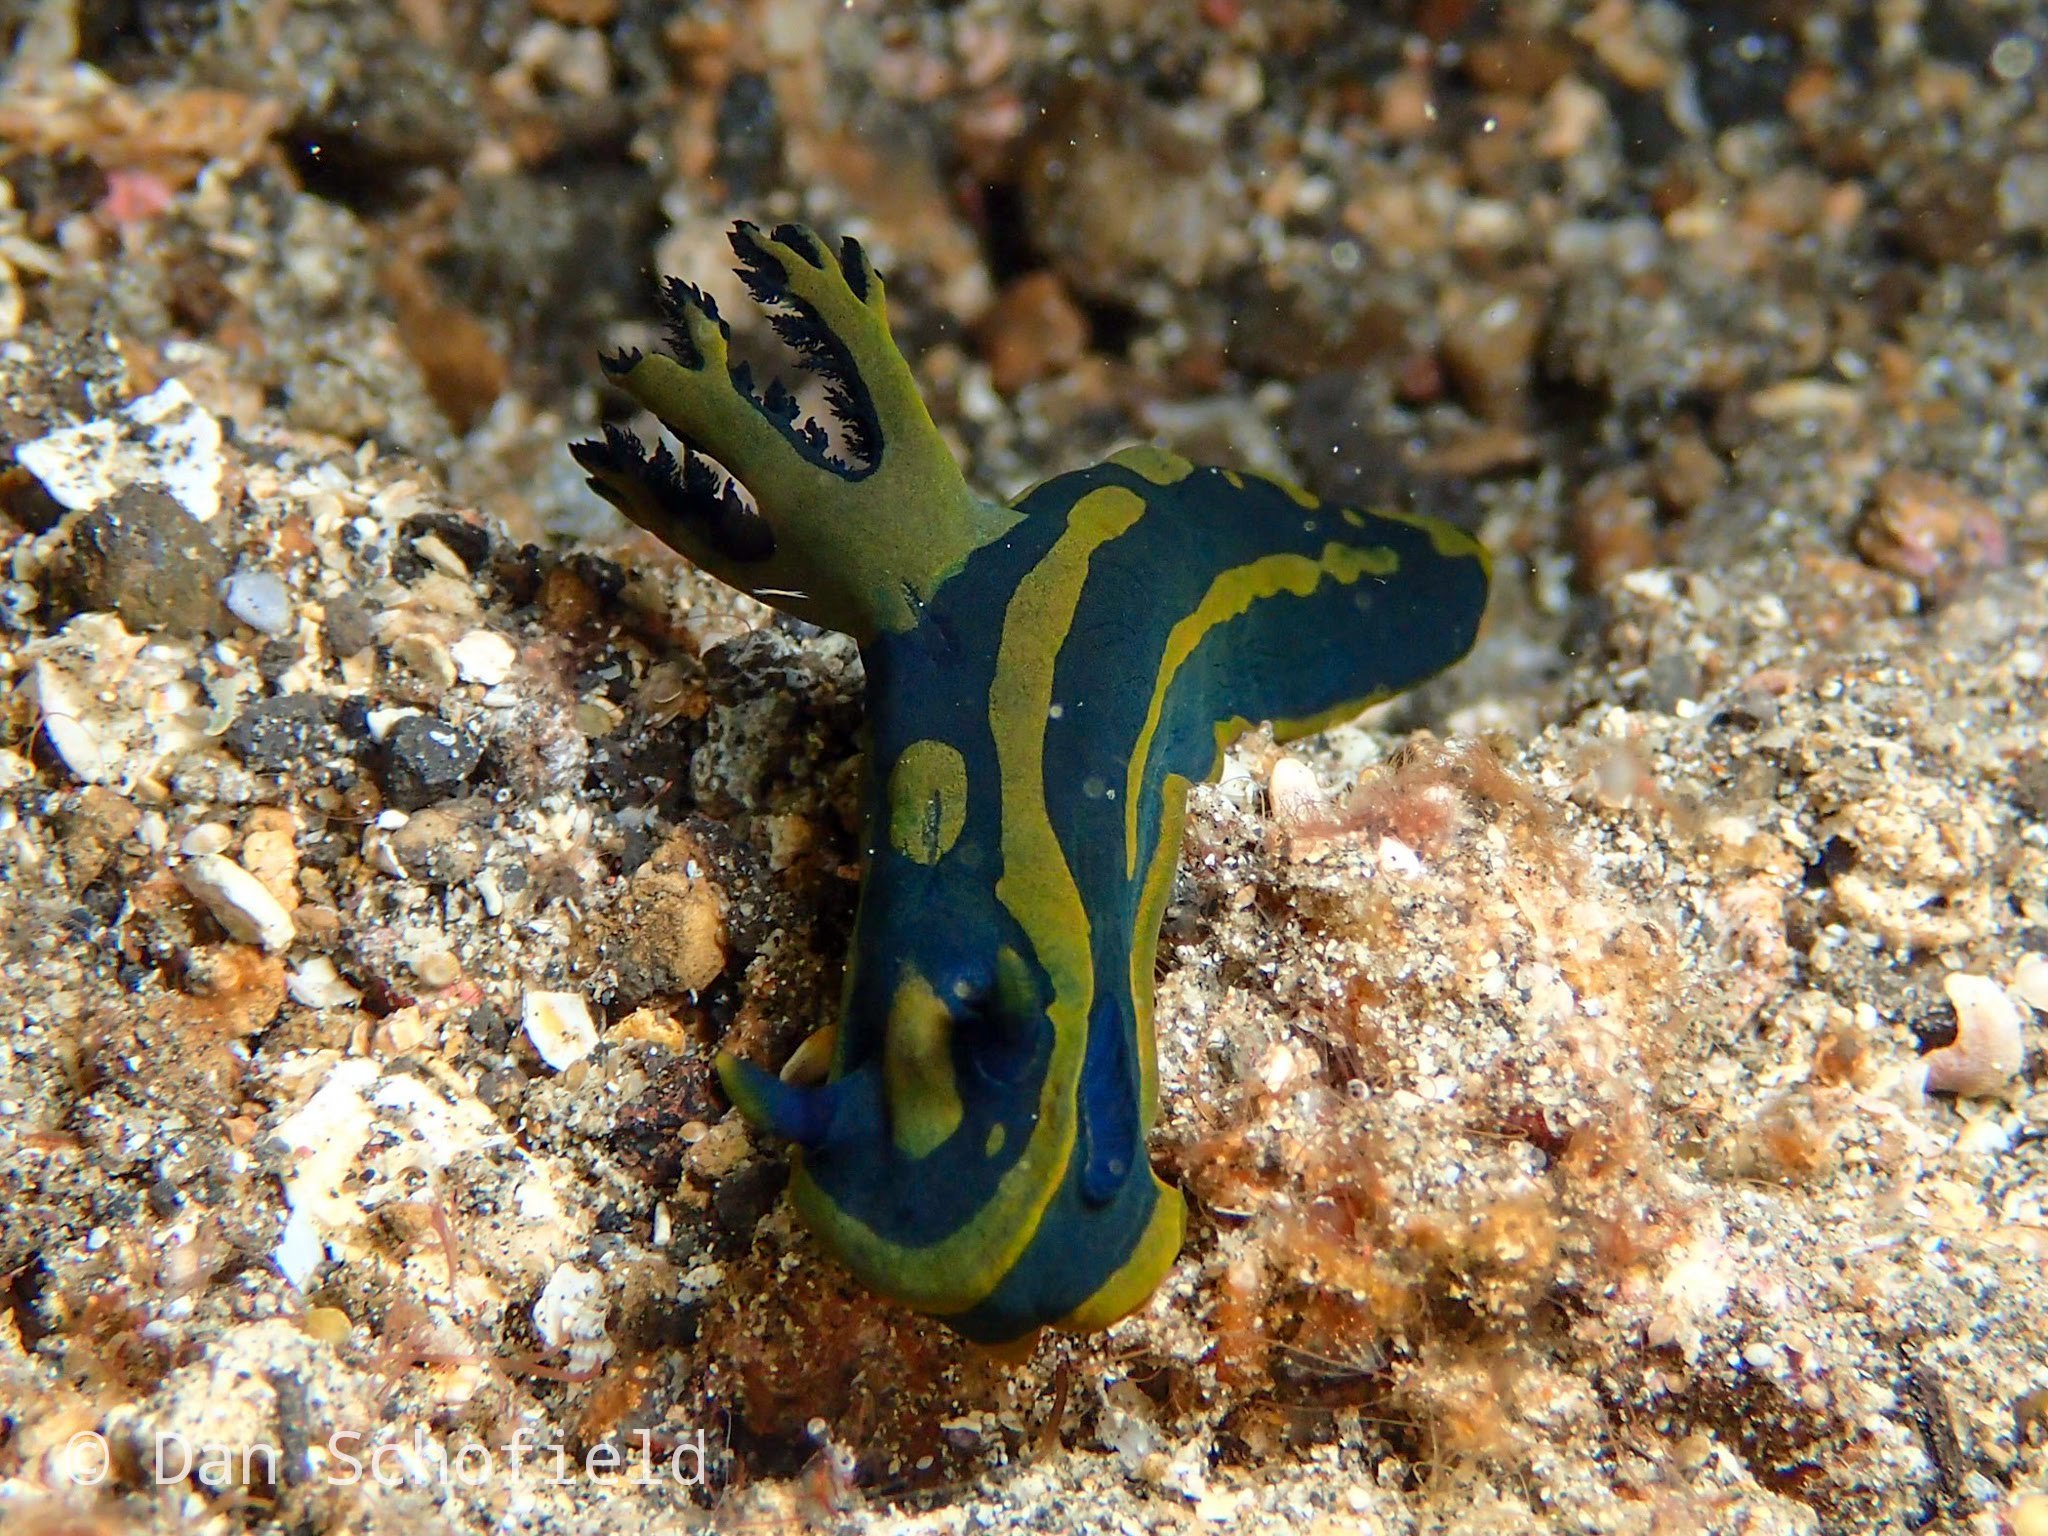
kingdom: Animalia
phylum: Mollusca
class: Gastropoda
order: Nudibranchia
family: Polyceridae
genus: Tambja
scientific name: Tambja gabrielae
